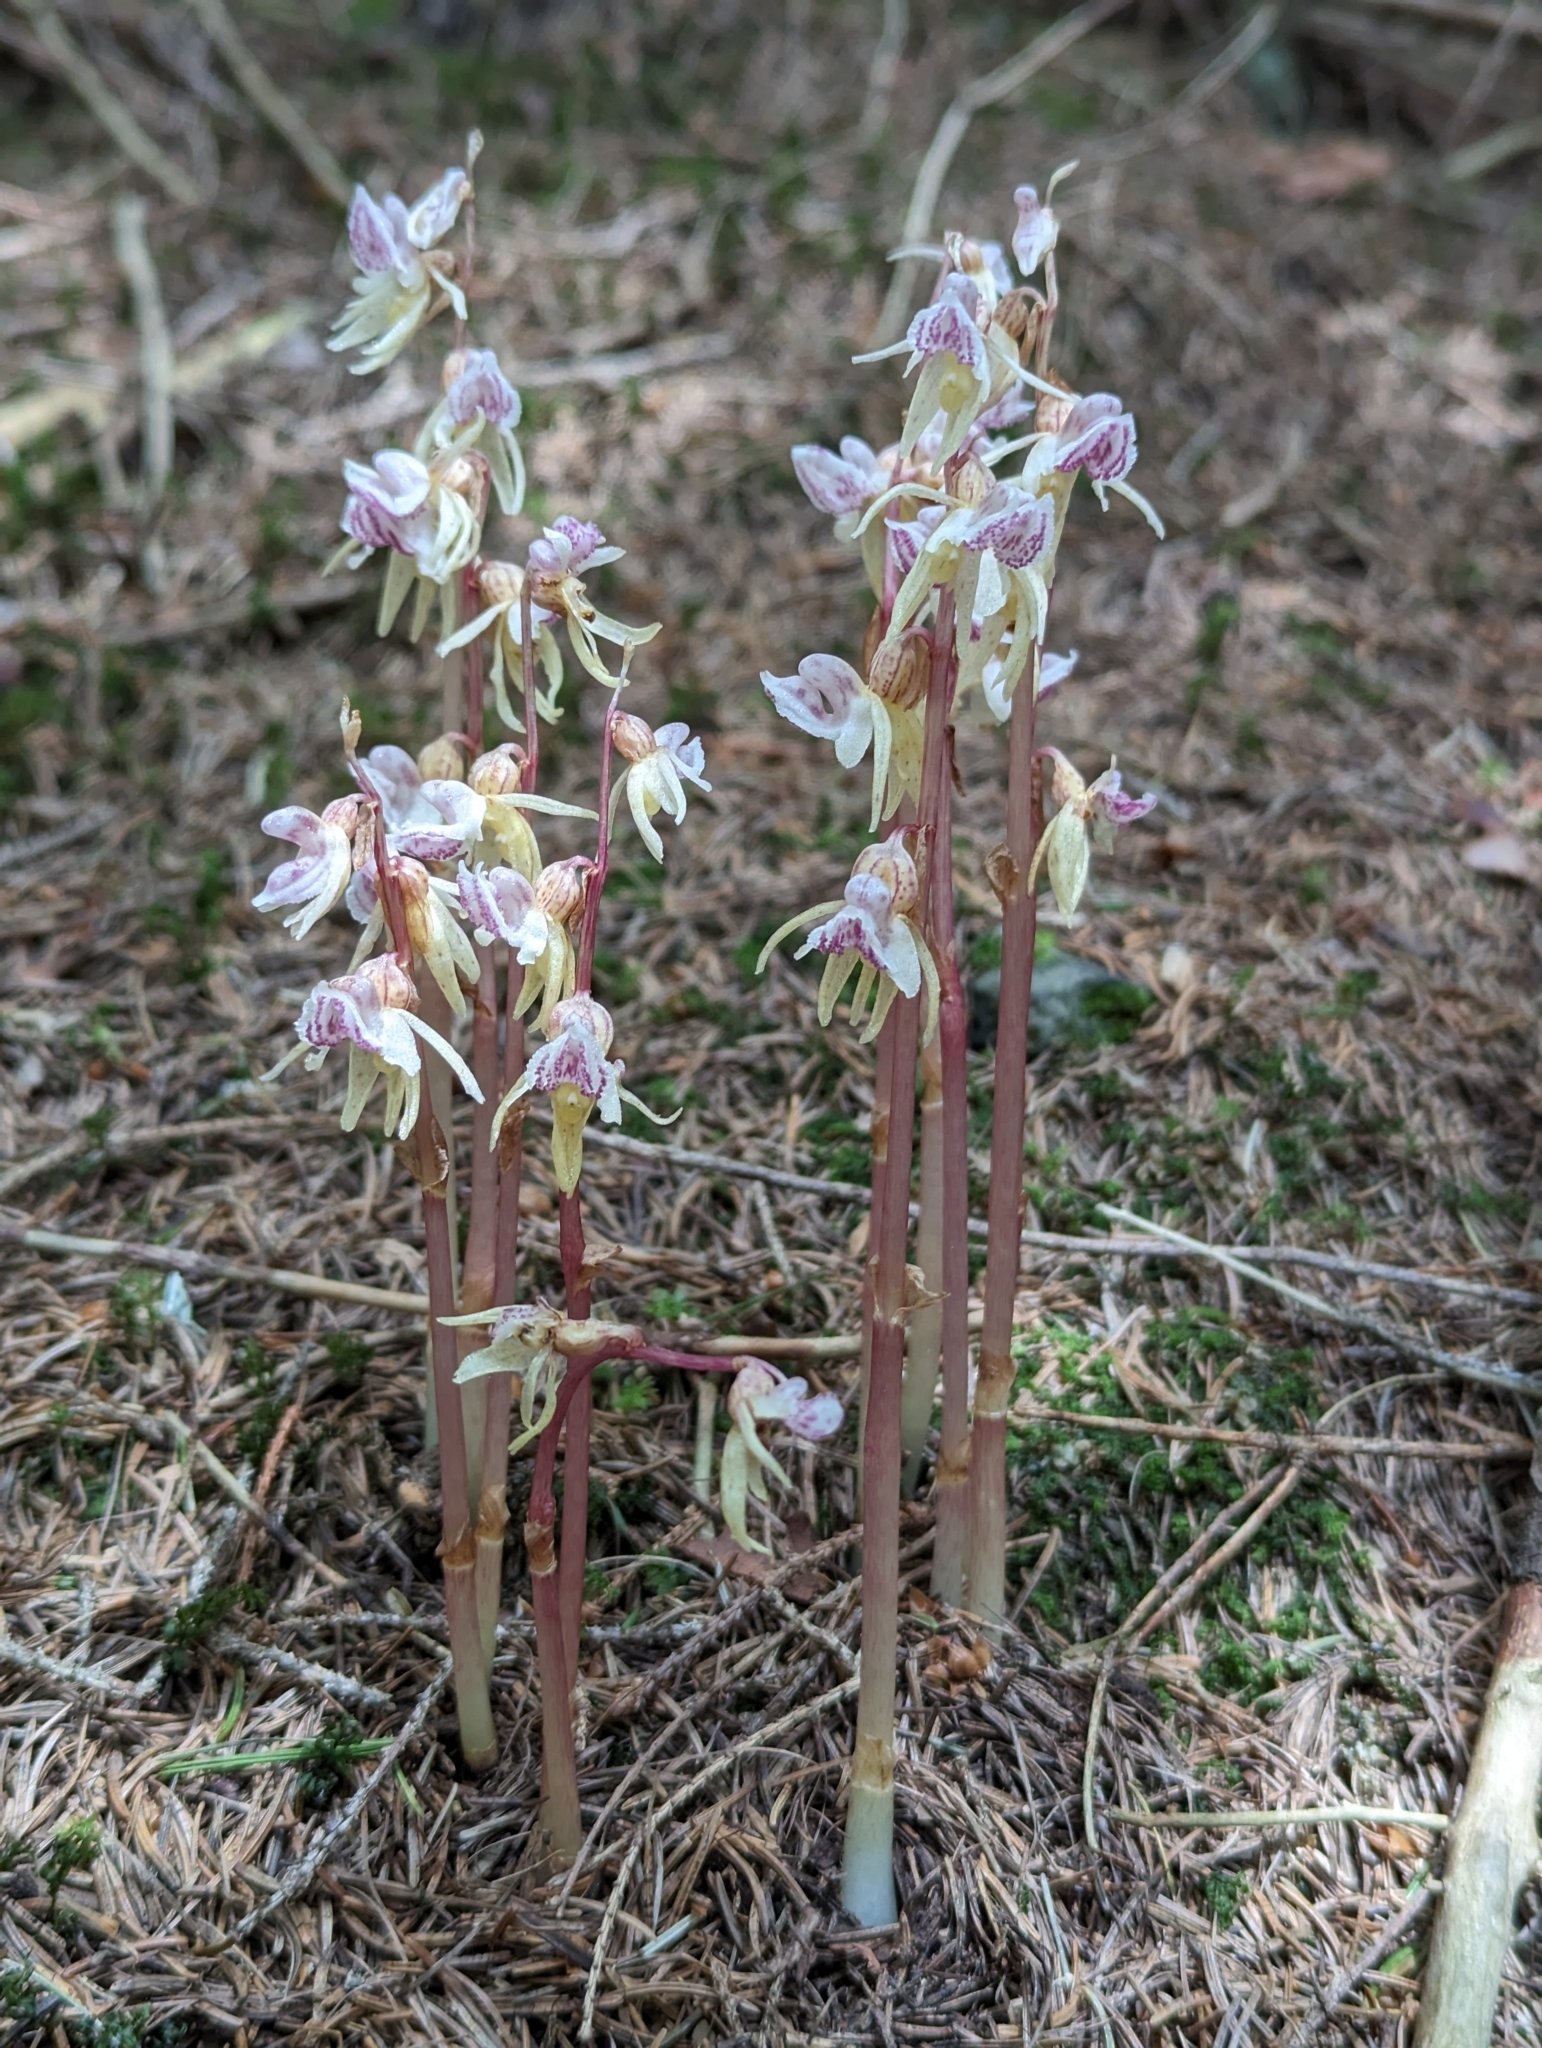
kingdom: Plantae
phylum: Tracheophyta
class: Liliopsida
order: Asparagales
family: Orchidaceae
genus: Epipogium
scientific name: Epipogium aphyllum
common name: Ghost orchid
